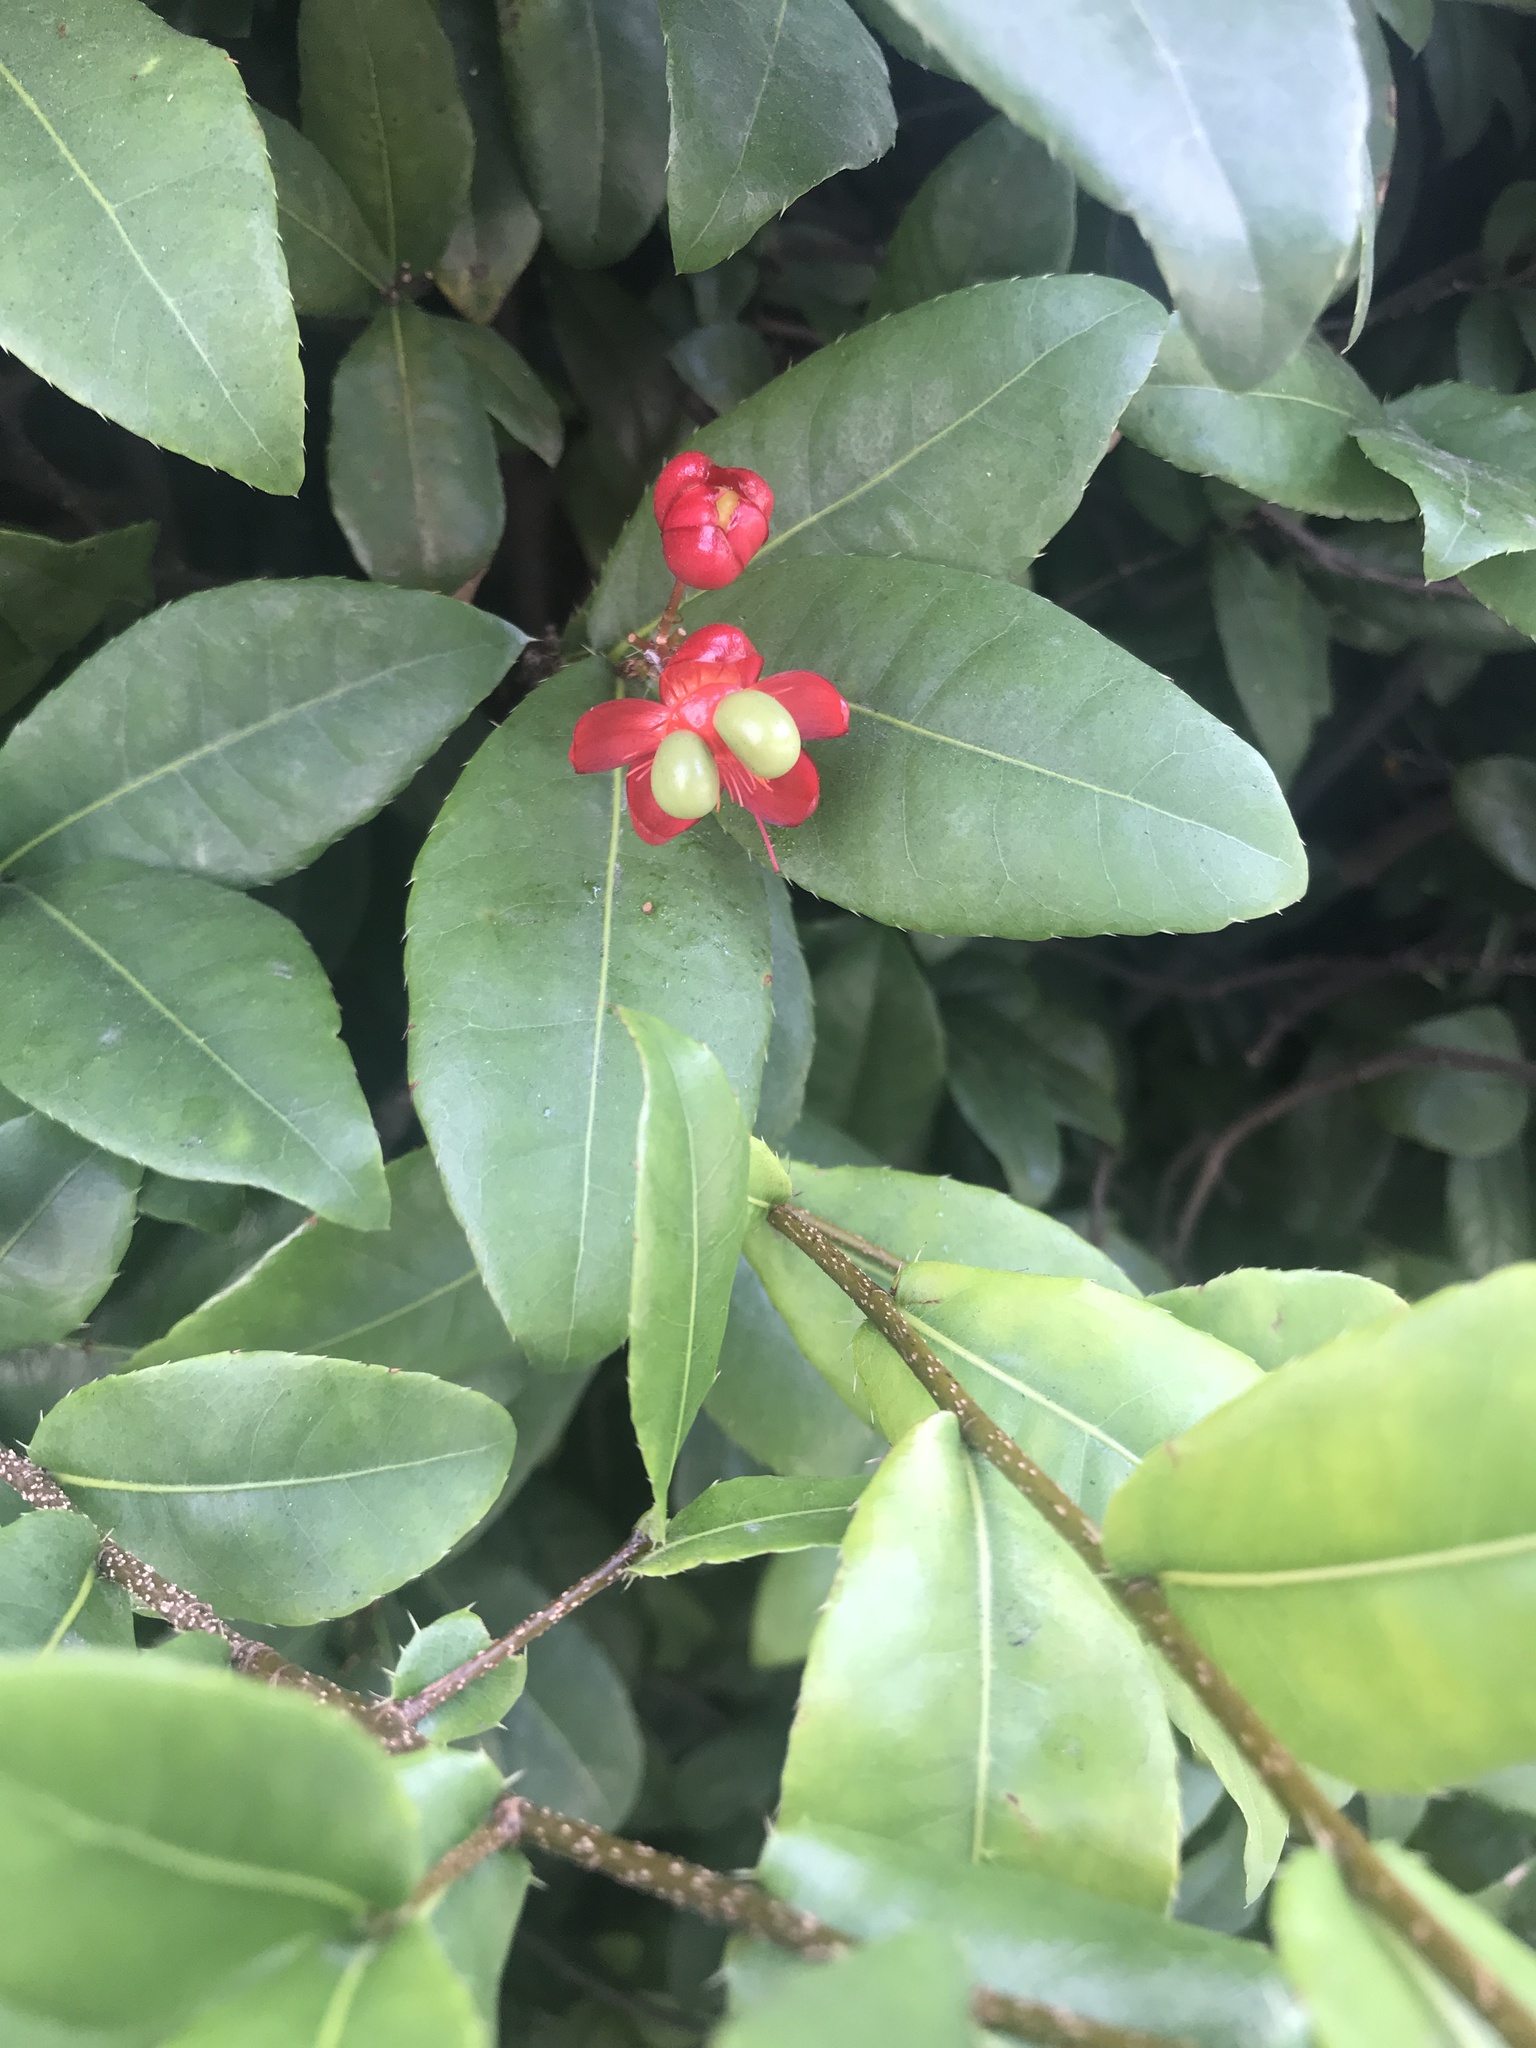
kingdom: Plantae
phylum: Tracheophyta
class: Magnoliopsida
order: Malpighiales
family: Ochnaceae
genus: Ochna
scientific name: Ochna serrulata
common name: Mickey mouse plant
